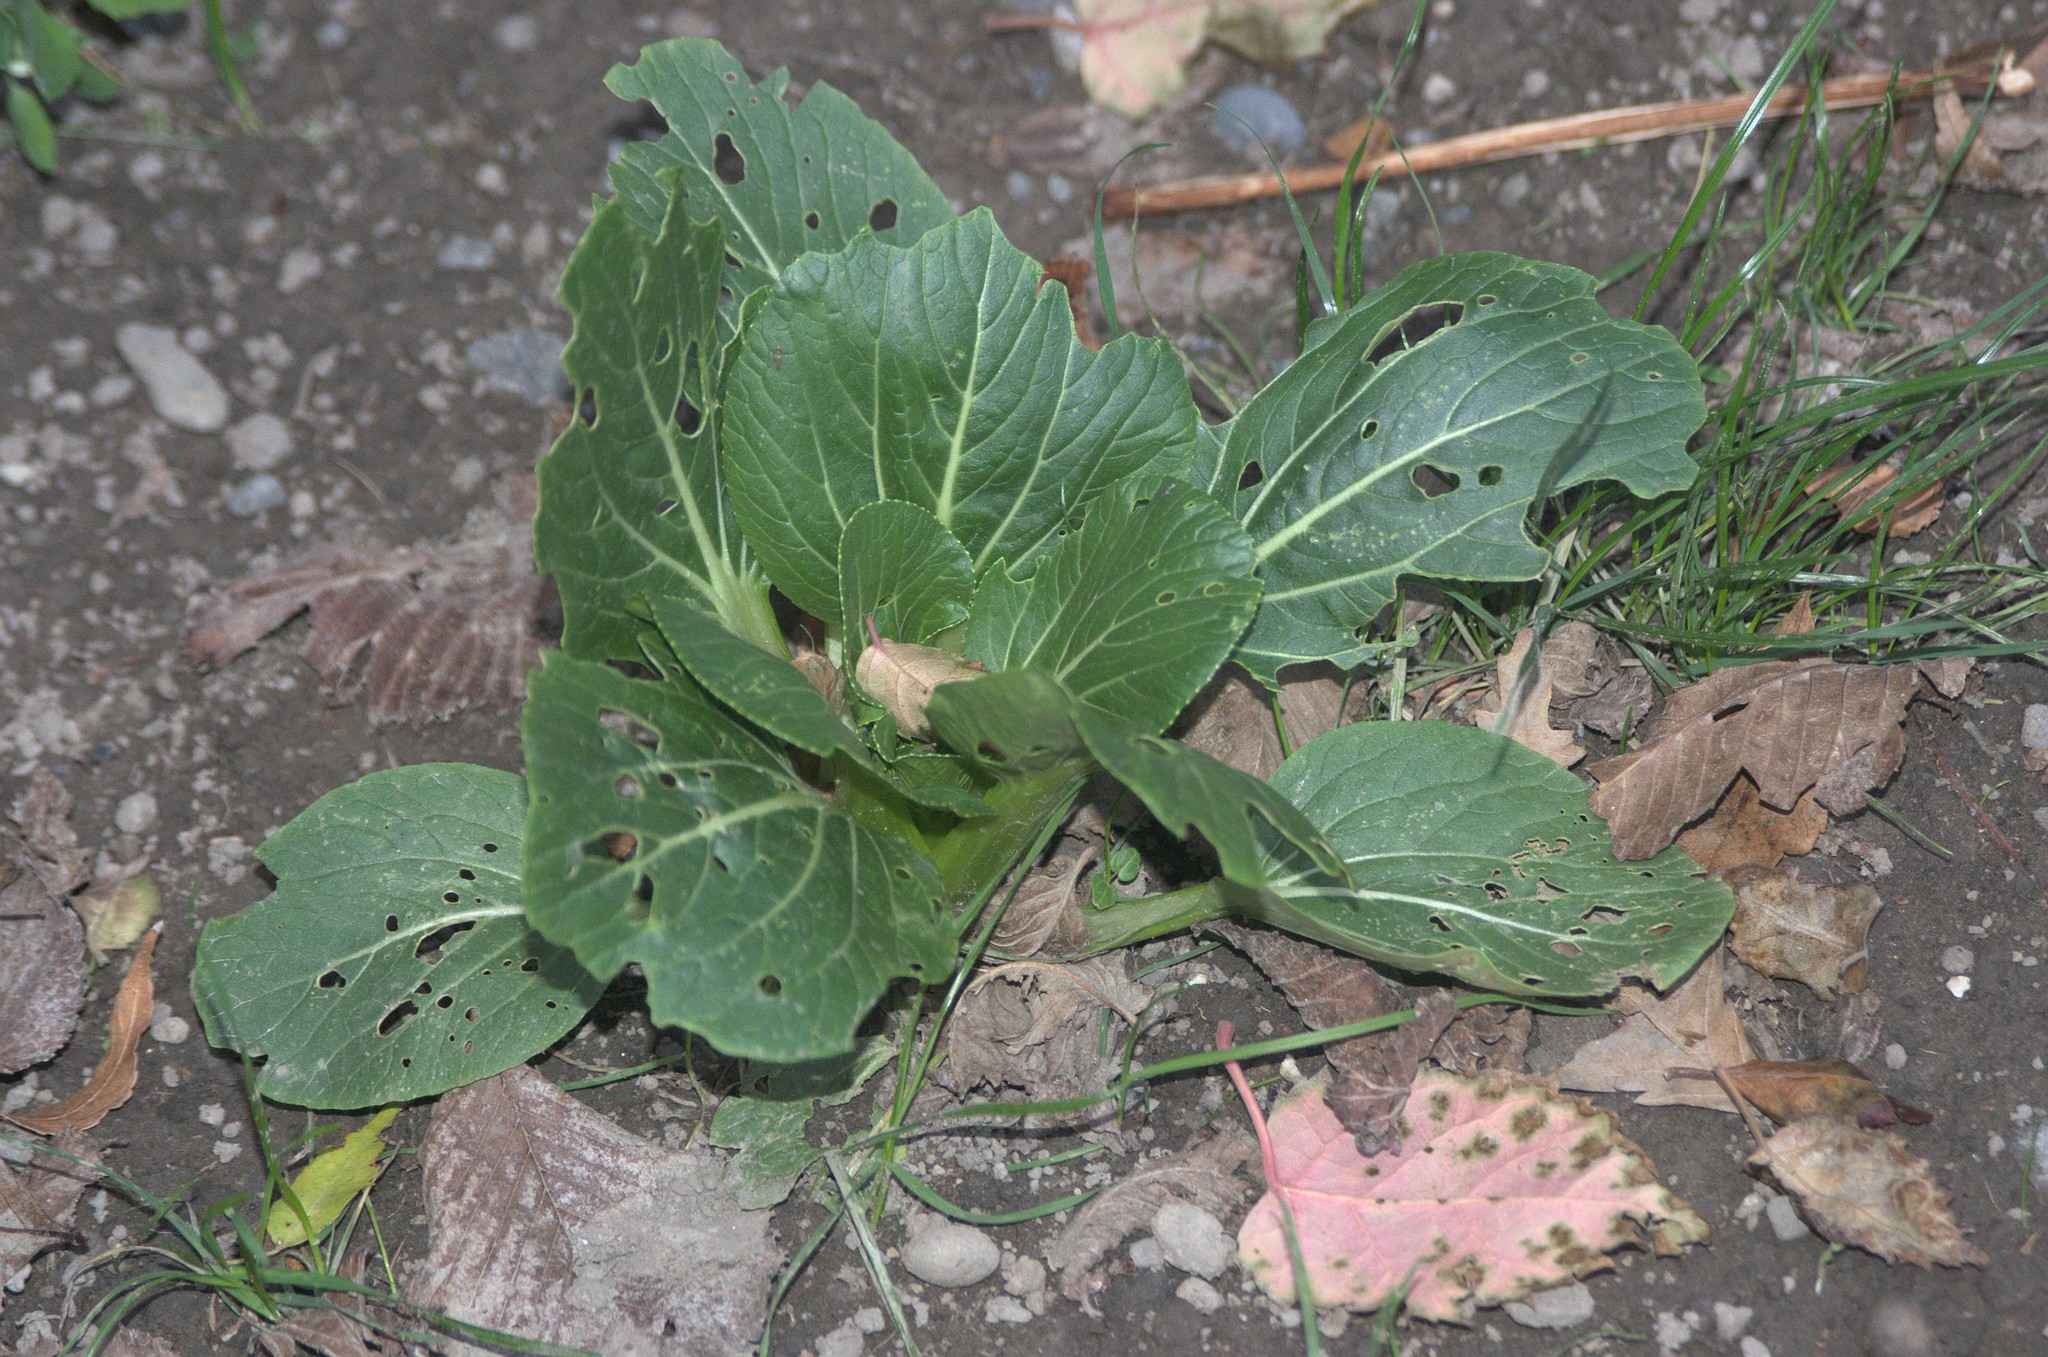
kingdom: Plantae
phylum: Tracheophyta
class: Magnoliopsida
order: Brassicales
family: Brassicaceae
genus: Brassica
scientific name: Brassica rapa
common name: Field mustard
